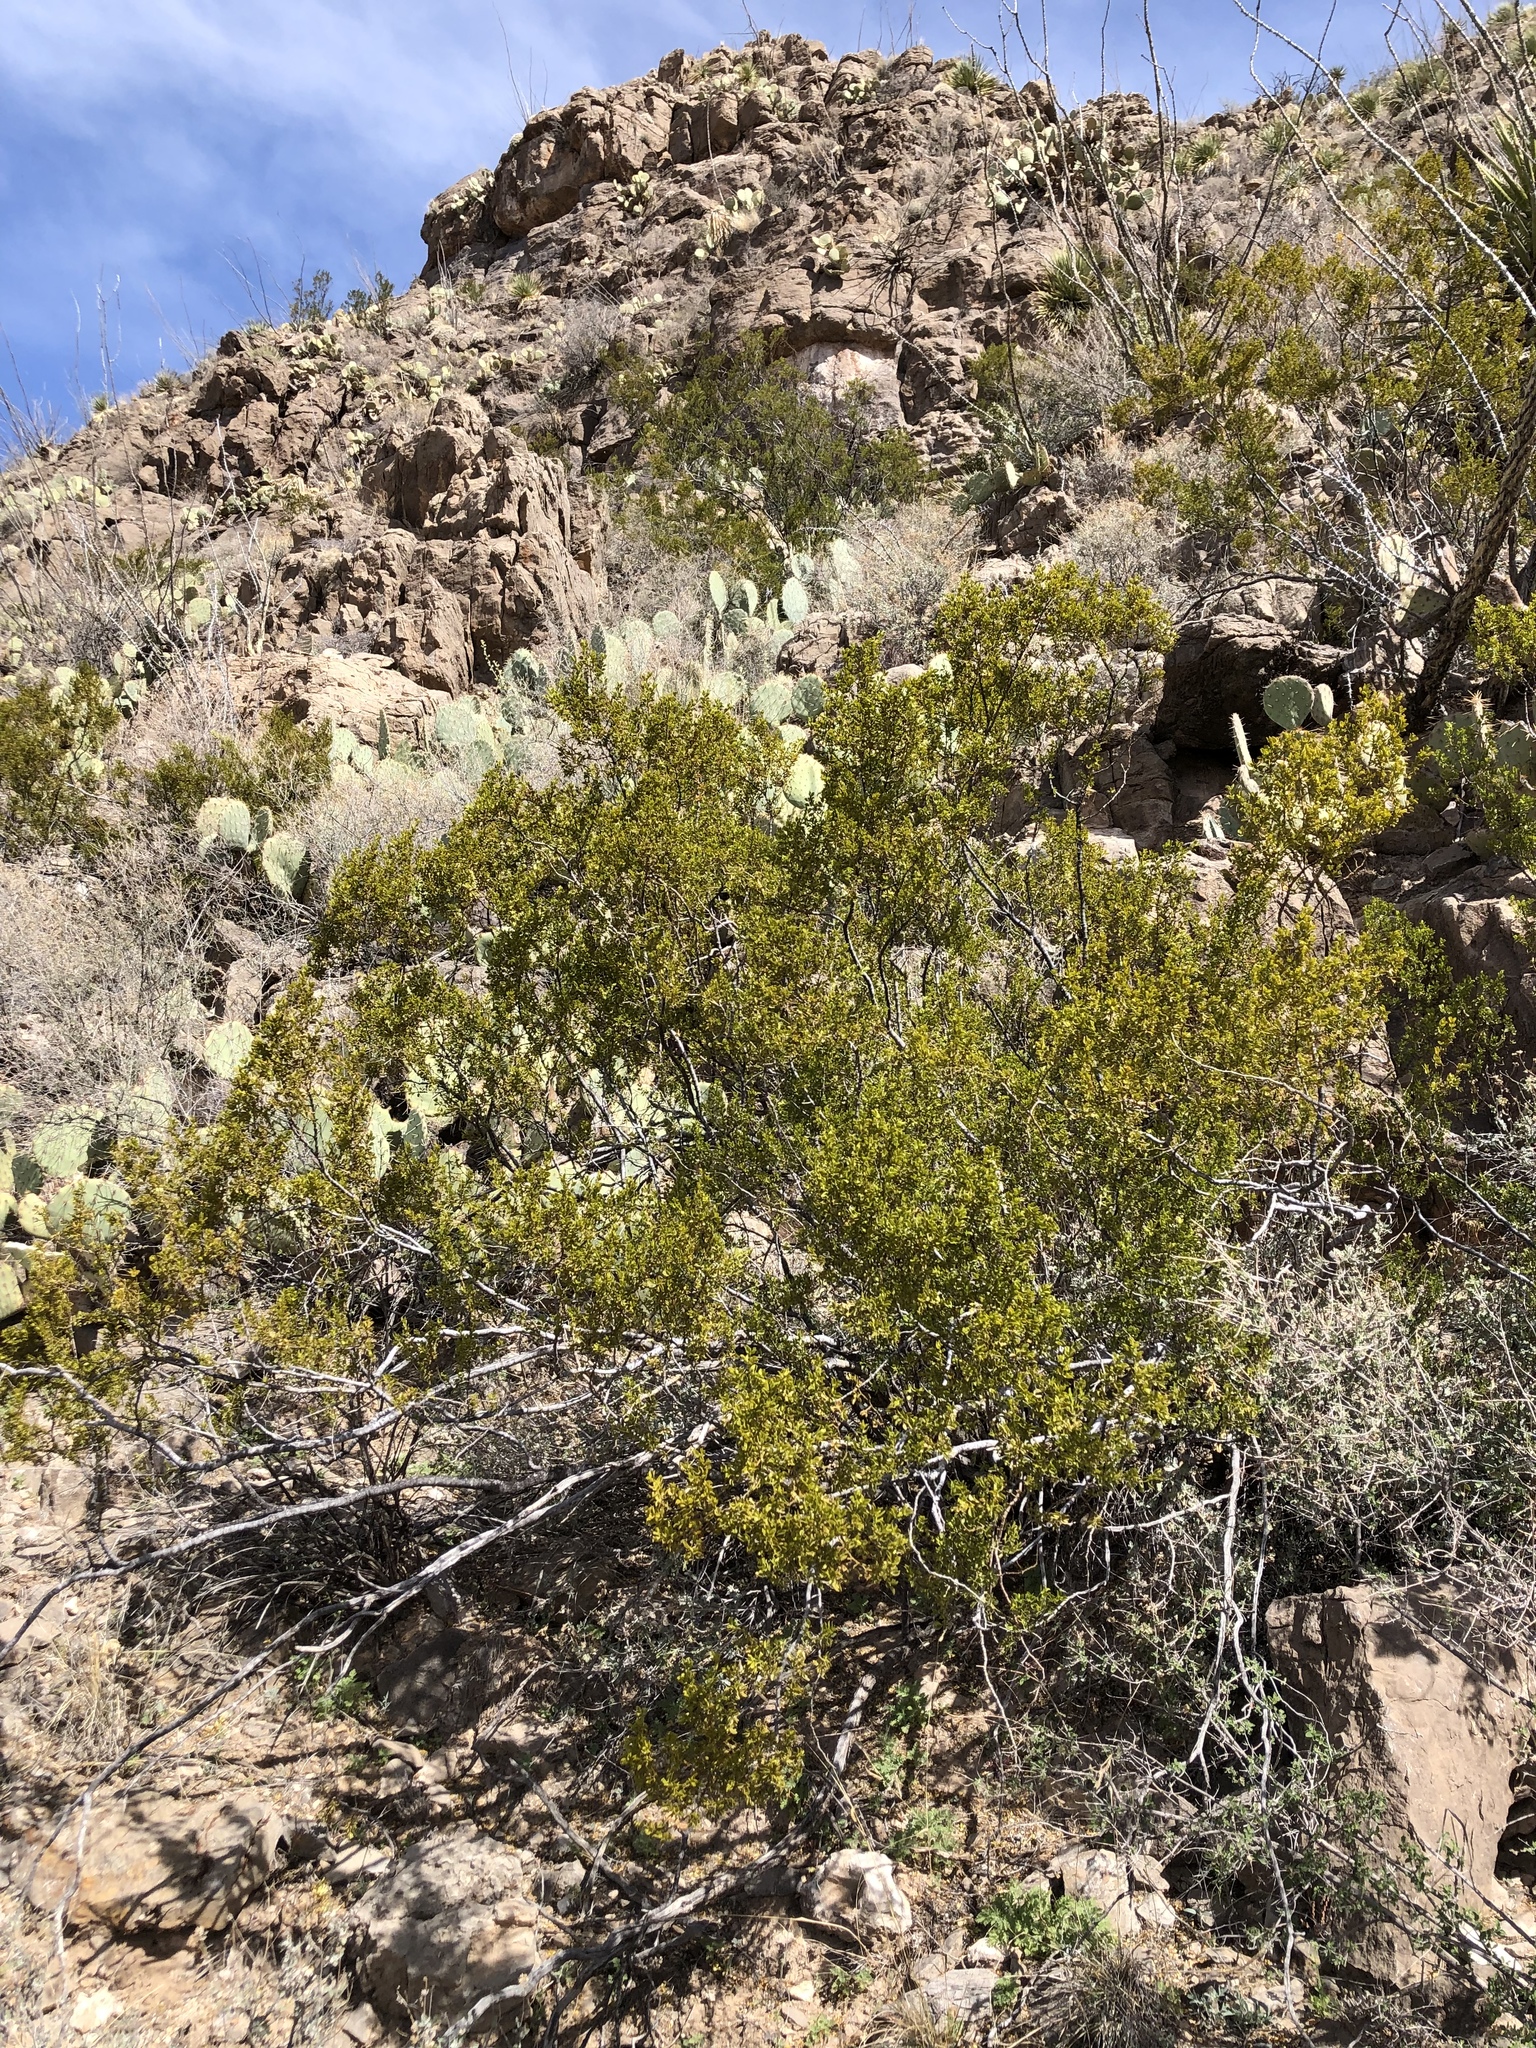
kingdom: Plantae
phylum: Tracheophyta
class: Magnoliopsida
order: Zygophyllales
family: Zygophyllaceae
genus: Larrea
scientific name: Larrea tridentata
